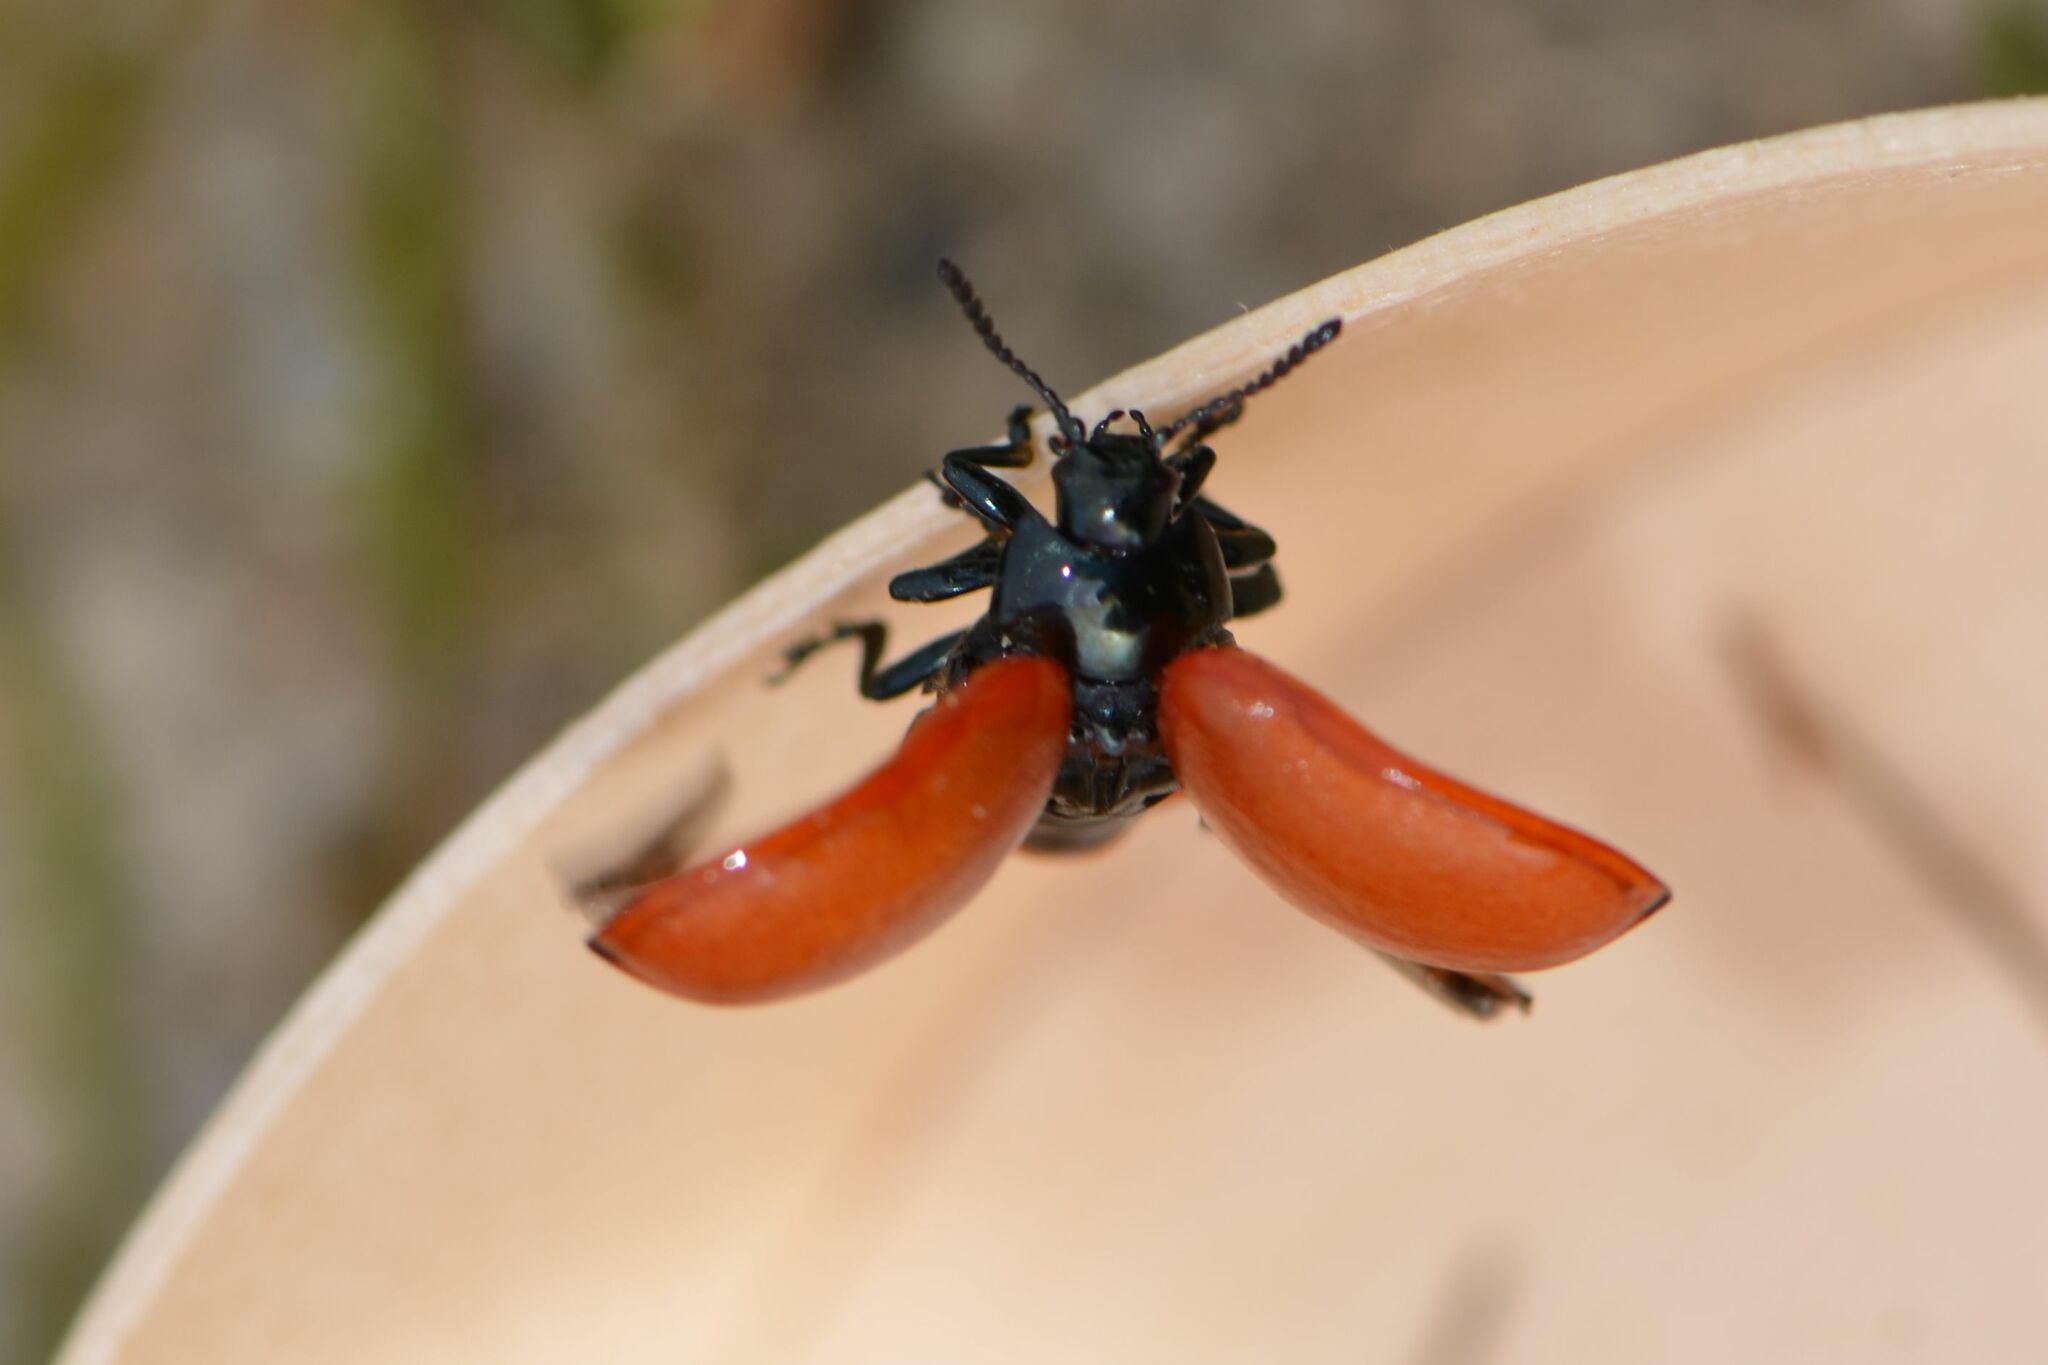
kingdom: Animalia
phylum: Arthropoda
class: Insecta
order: Coleoptera
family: Chrysomelidae
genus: Chrysomela
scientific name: Chrysomela populi
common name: Red poplar leaf beetle
